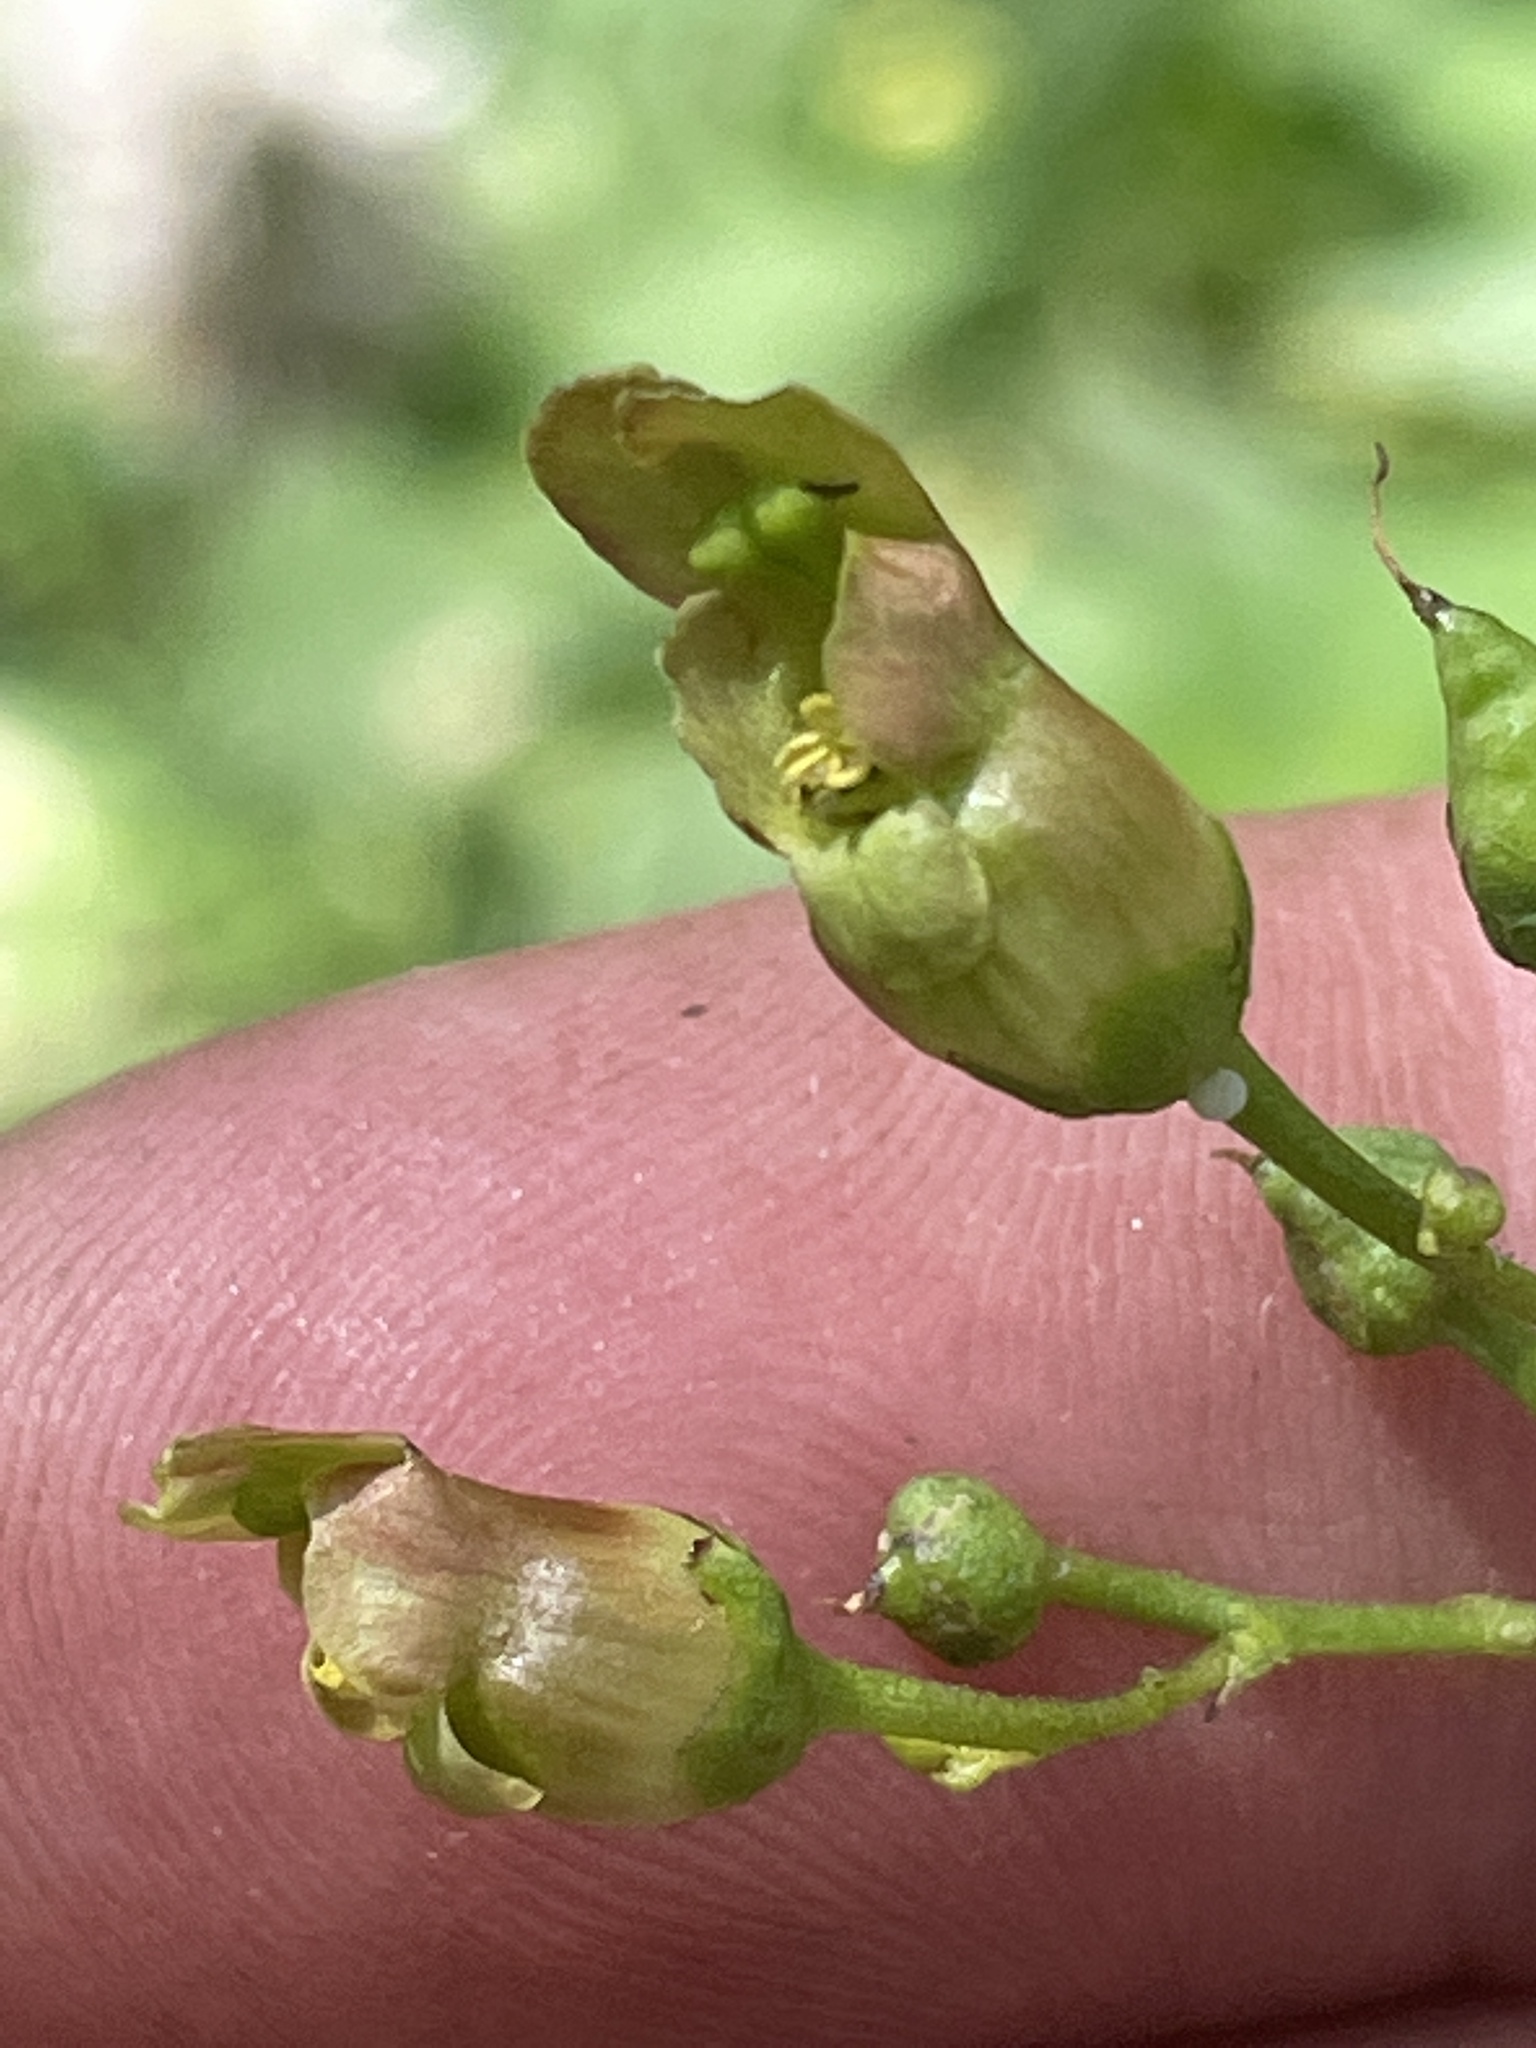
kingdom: Plantae
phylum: Tracheophyta
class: Magnoliopsida
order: Lamiales
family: Scrophulariaceae
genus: Scrophularia
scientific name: Scrophularia lanceolata
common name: American figwort
